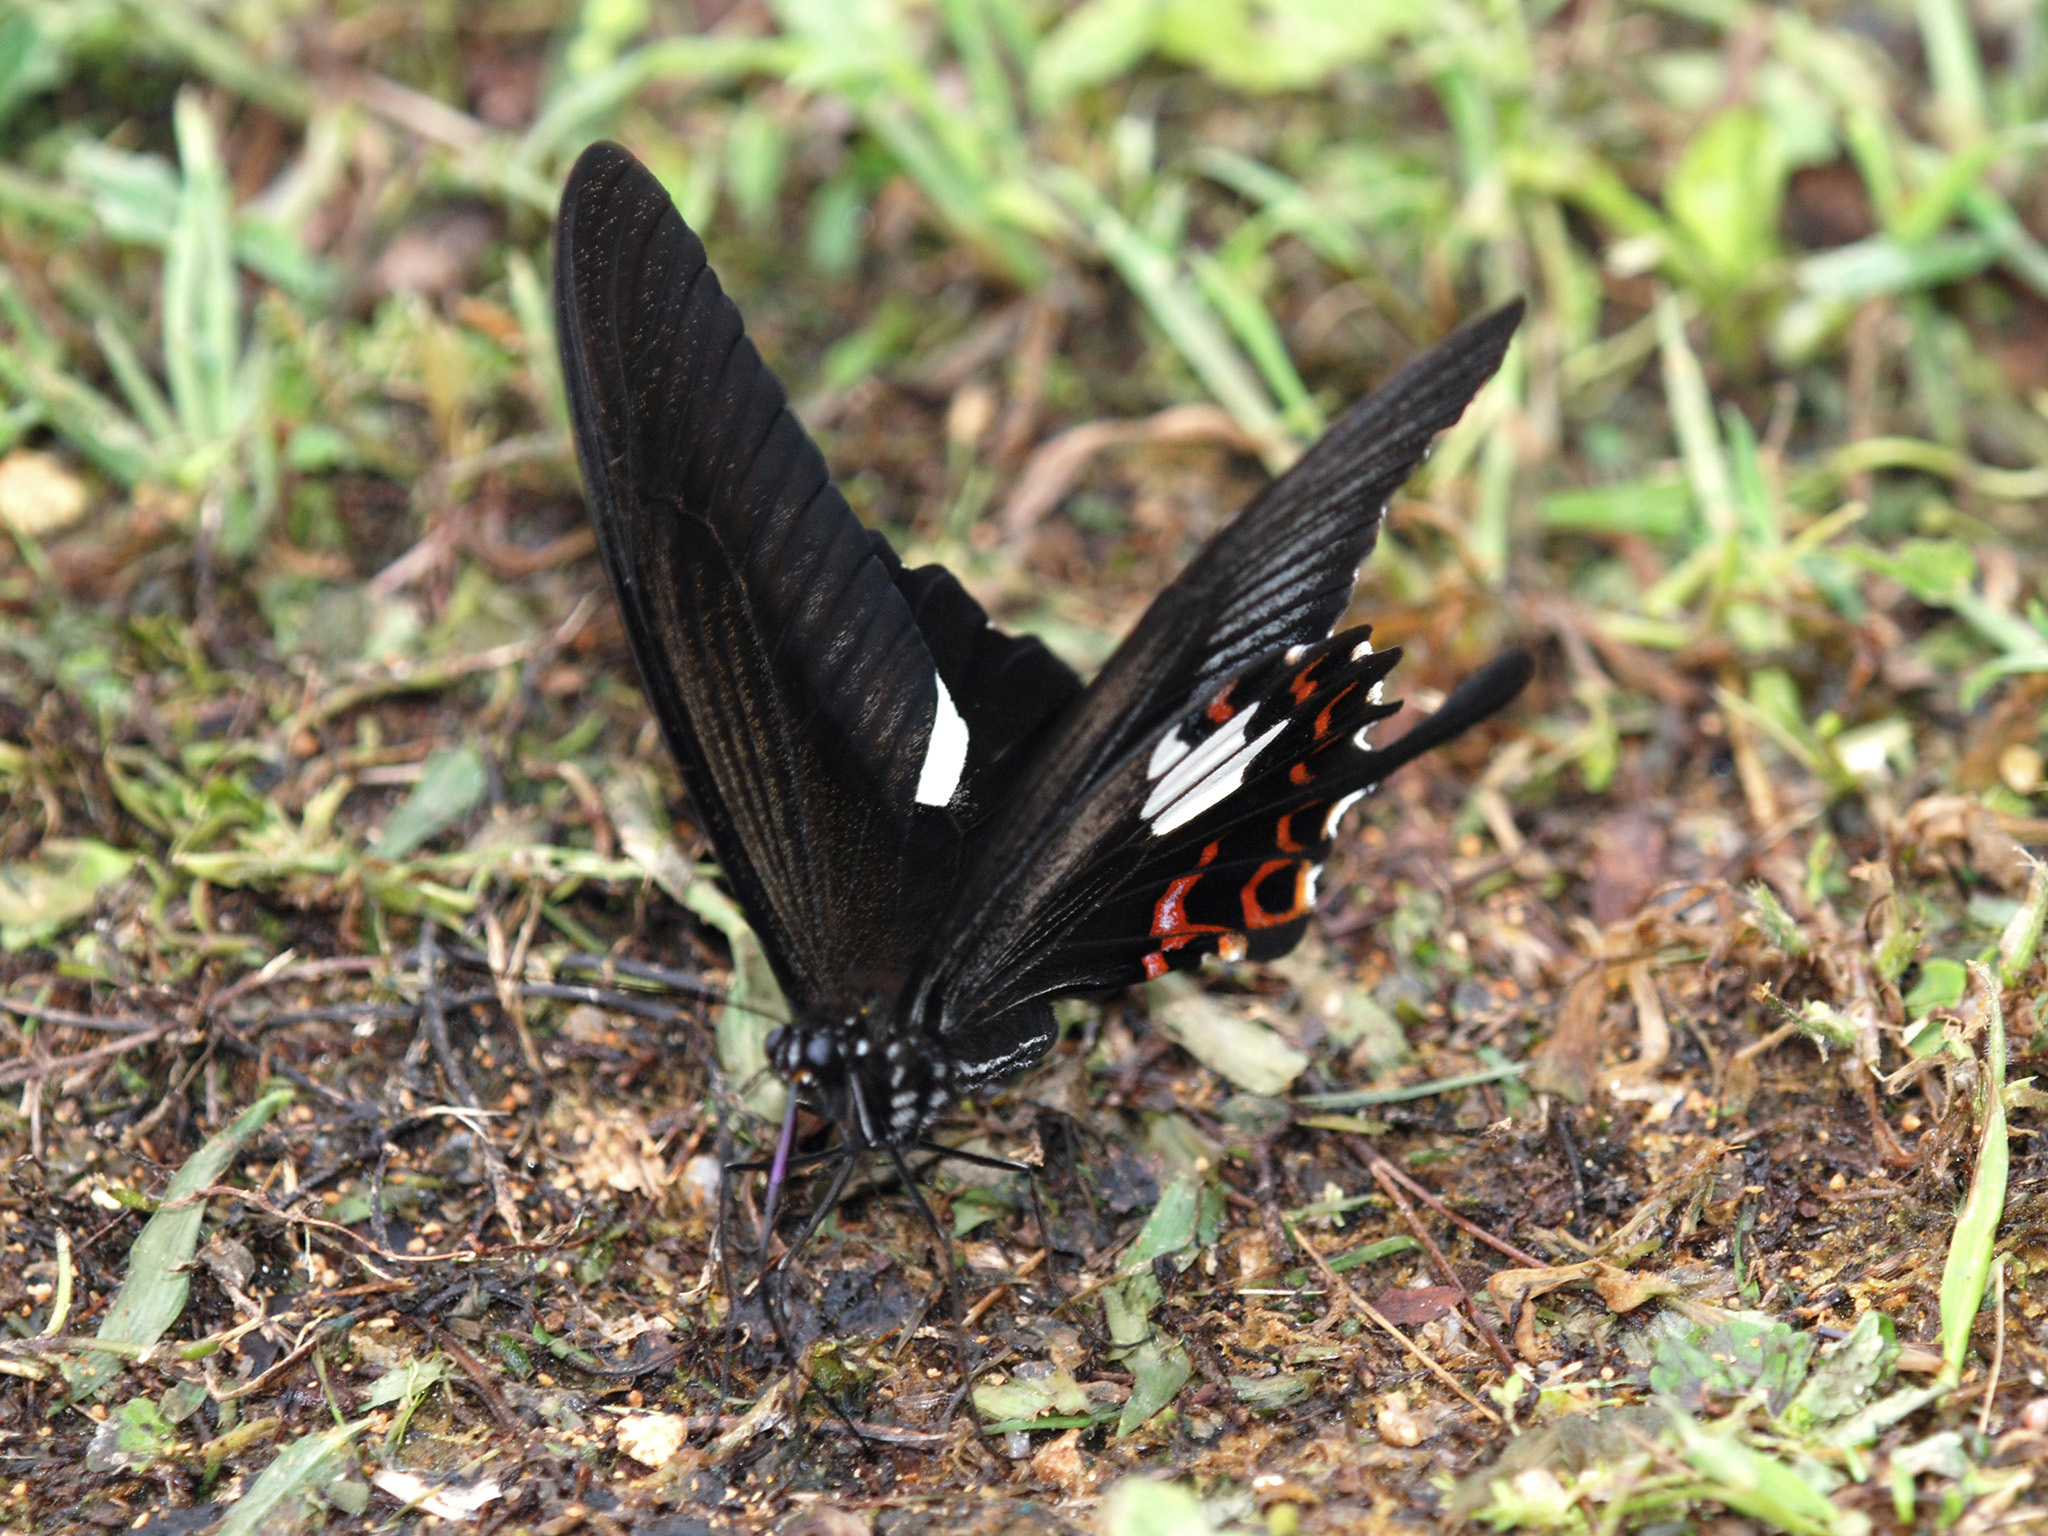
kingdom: Animalia
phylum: Arthropoda
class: Insecta
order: Lepidoptera
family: Papilionidae
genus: Papilio
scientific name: Papilio helenus
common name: Red helen
